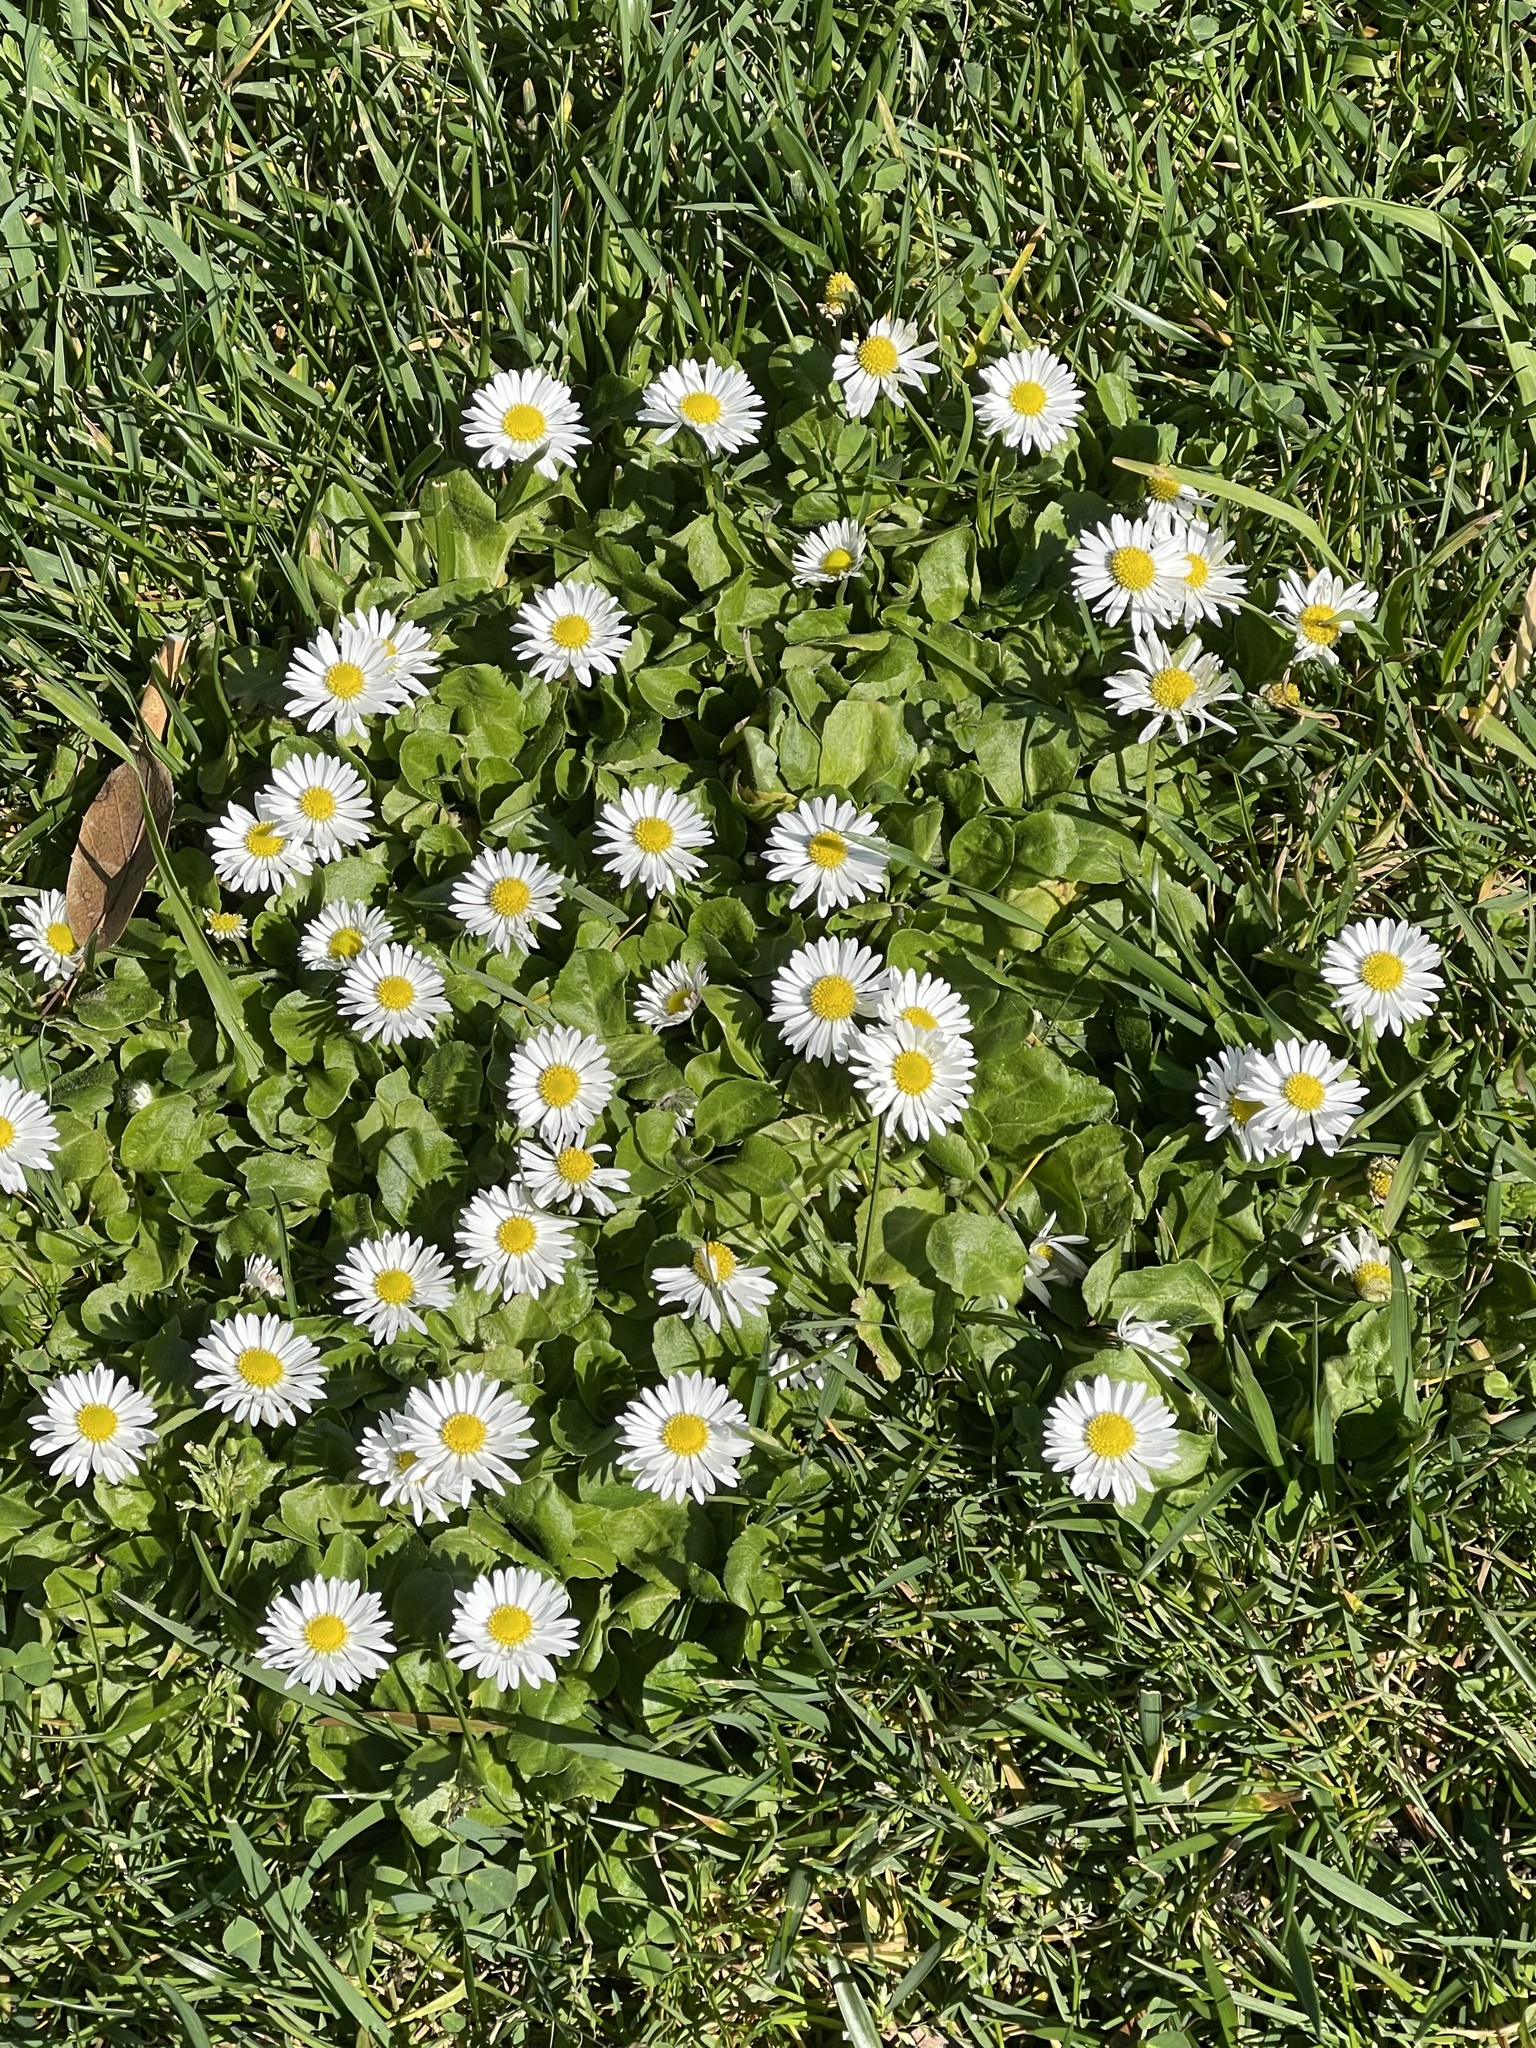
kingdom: Plantae
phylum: Tracheophyta
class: Magnoliopsida
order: Asterales
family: Asteraceae
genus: Bellis
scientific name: Bellis perennis
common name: Lawndaisy
